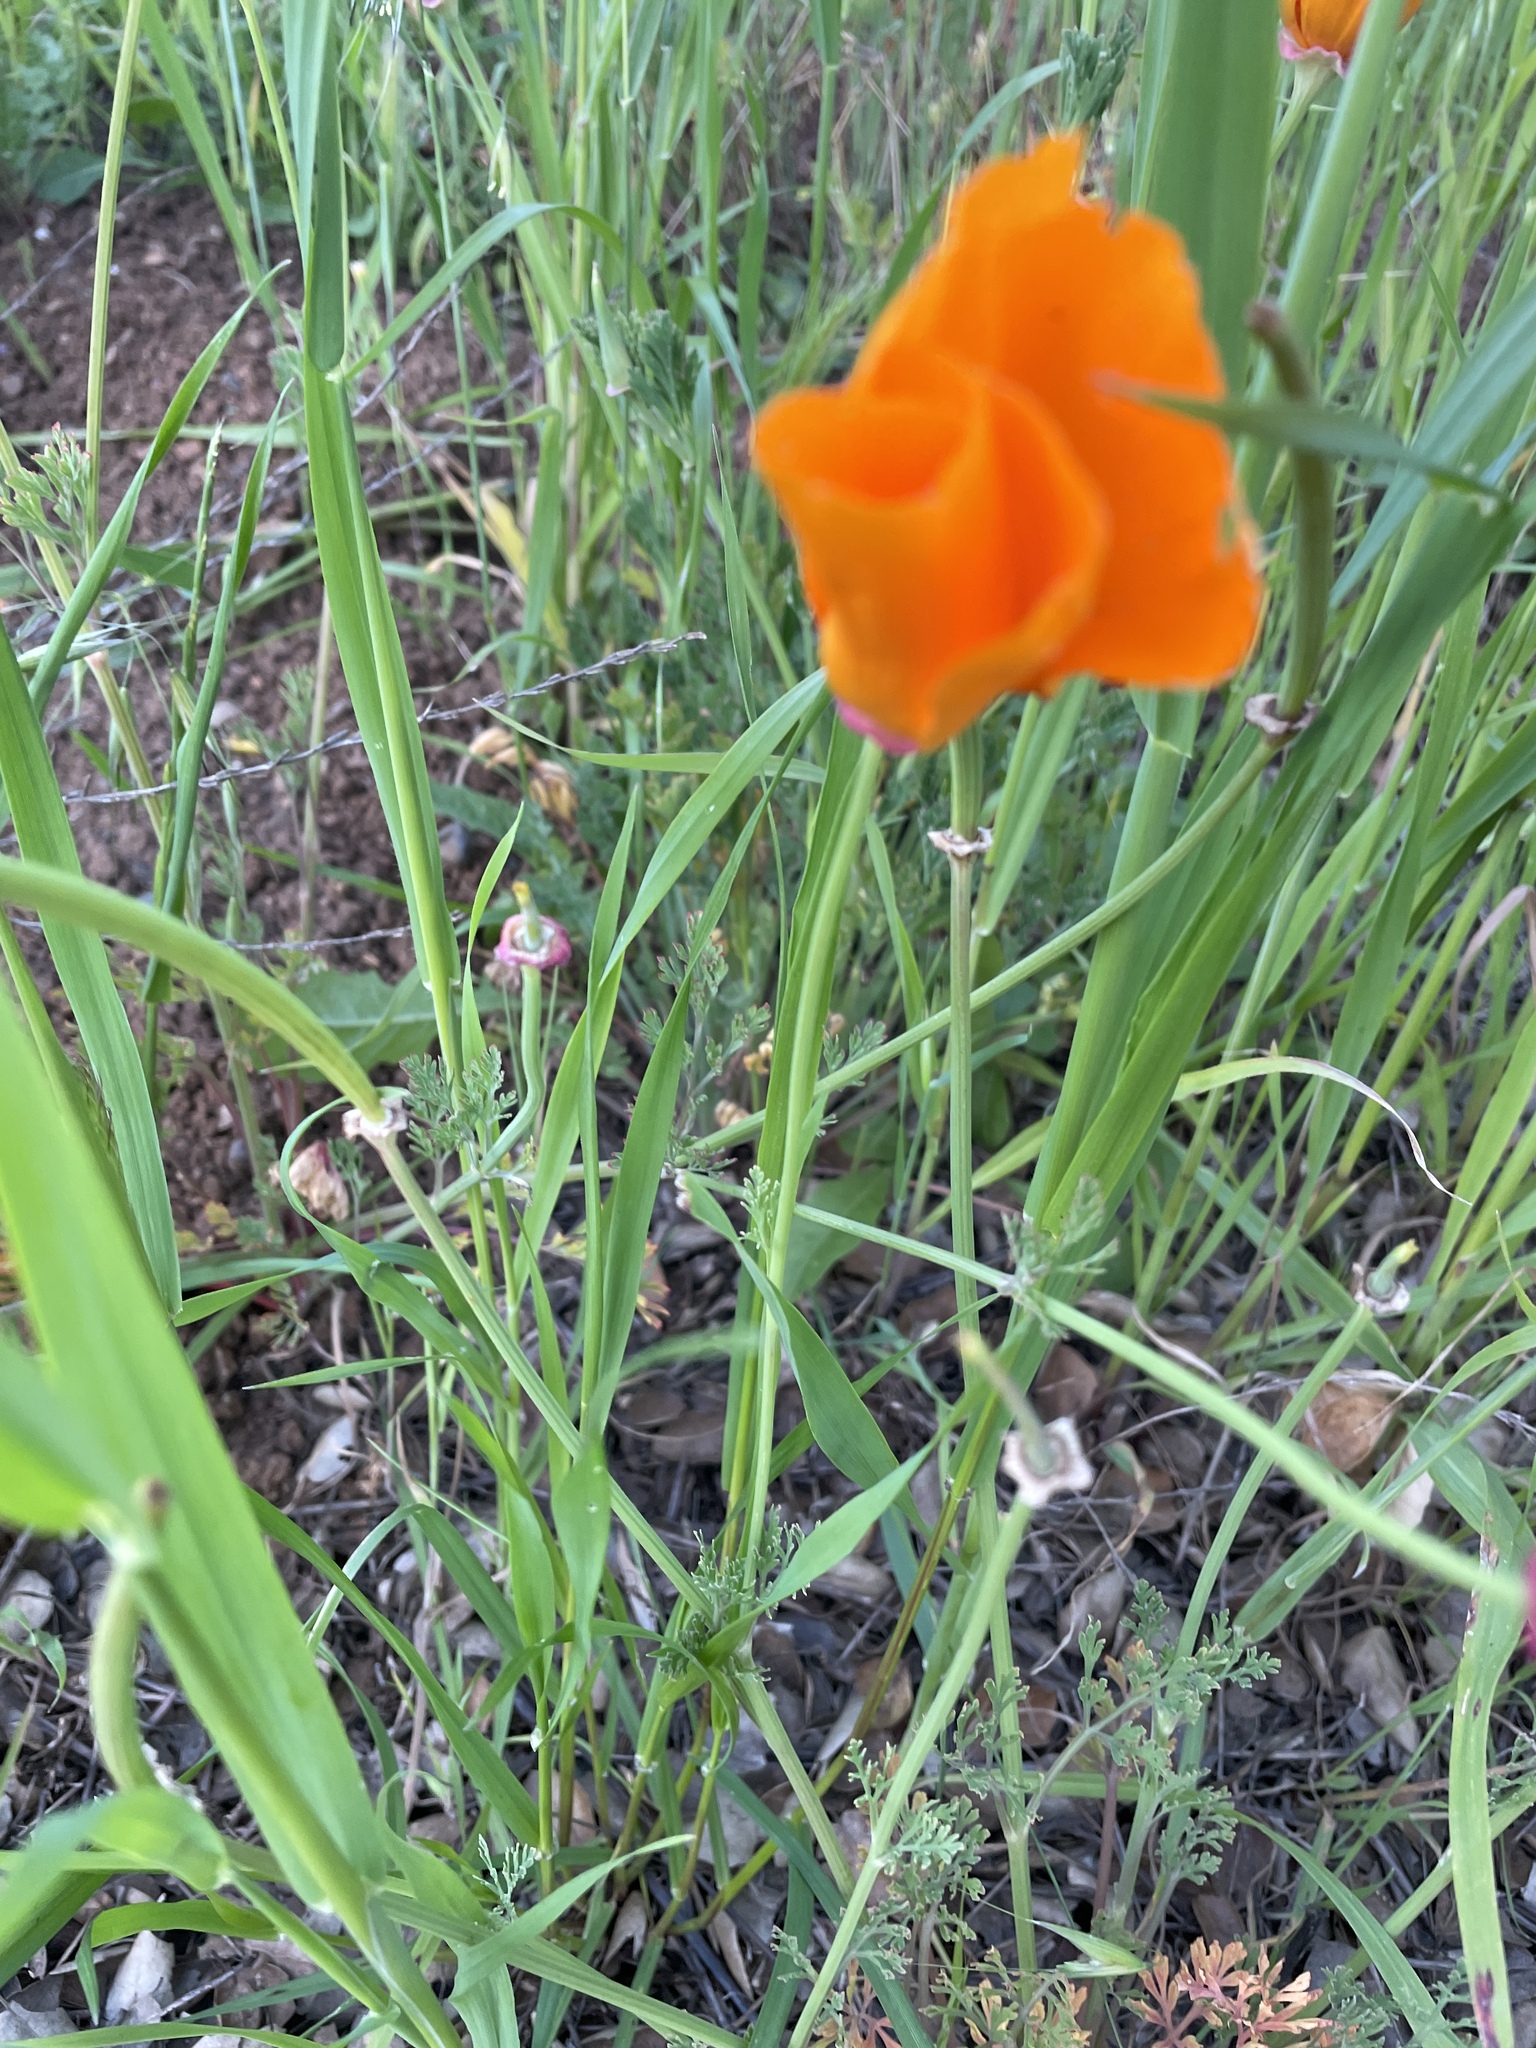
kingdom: Plantae
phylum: Tracheophyta
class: Magnoliopsida
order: Ranunculales
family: Papaveraceae
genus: Eschscholzia
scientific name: Eschscholzia californica
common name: California poppy
